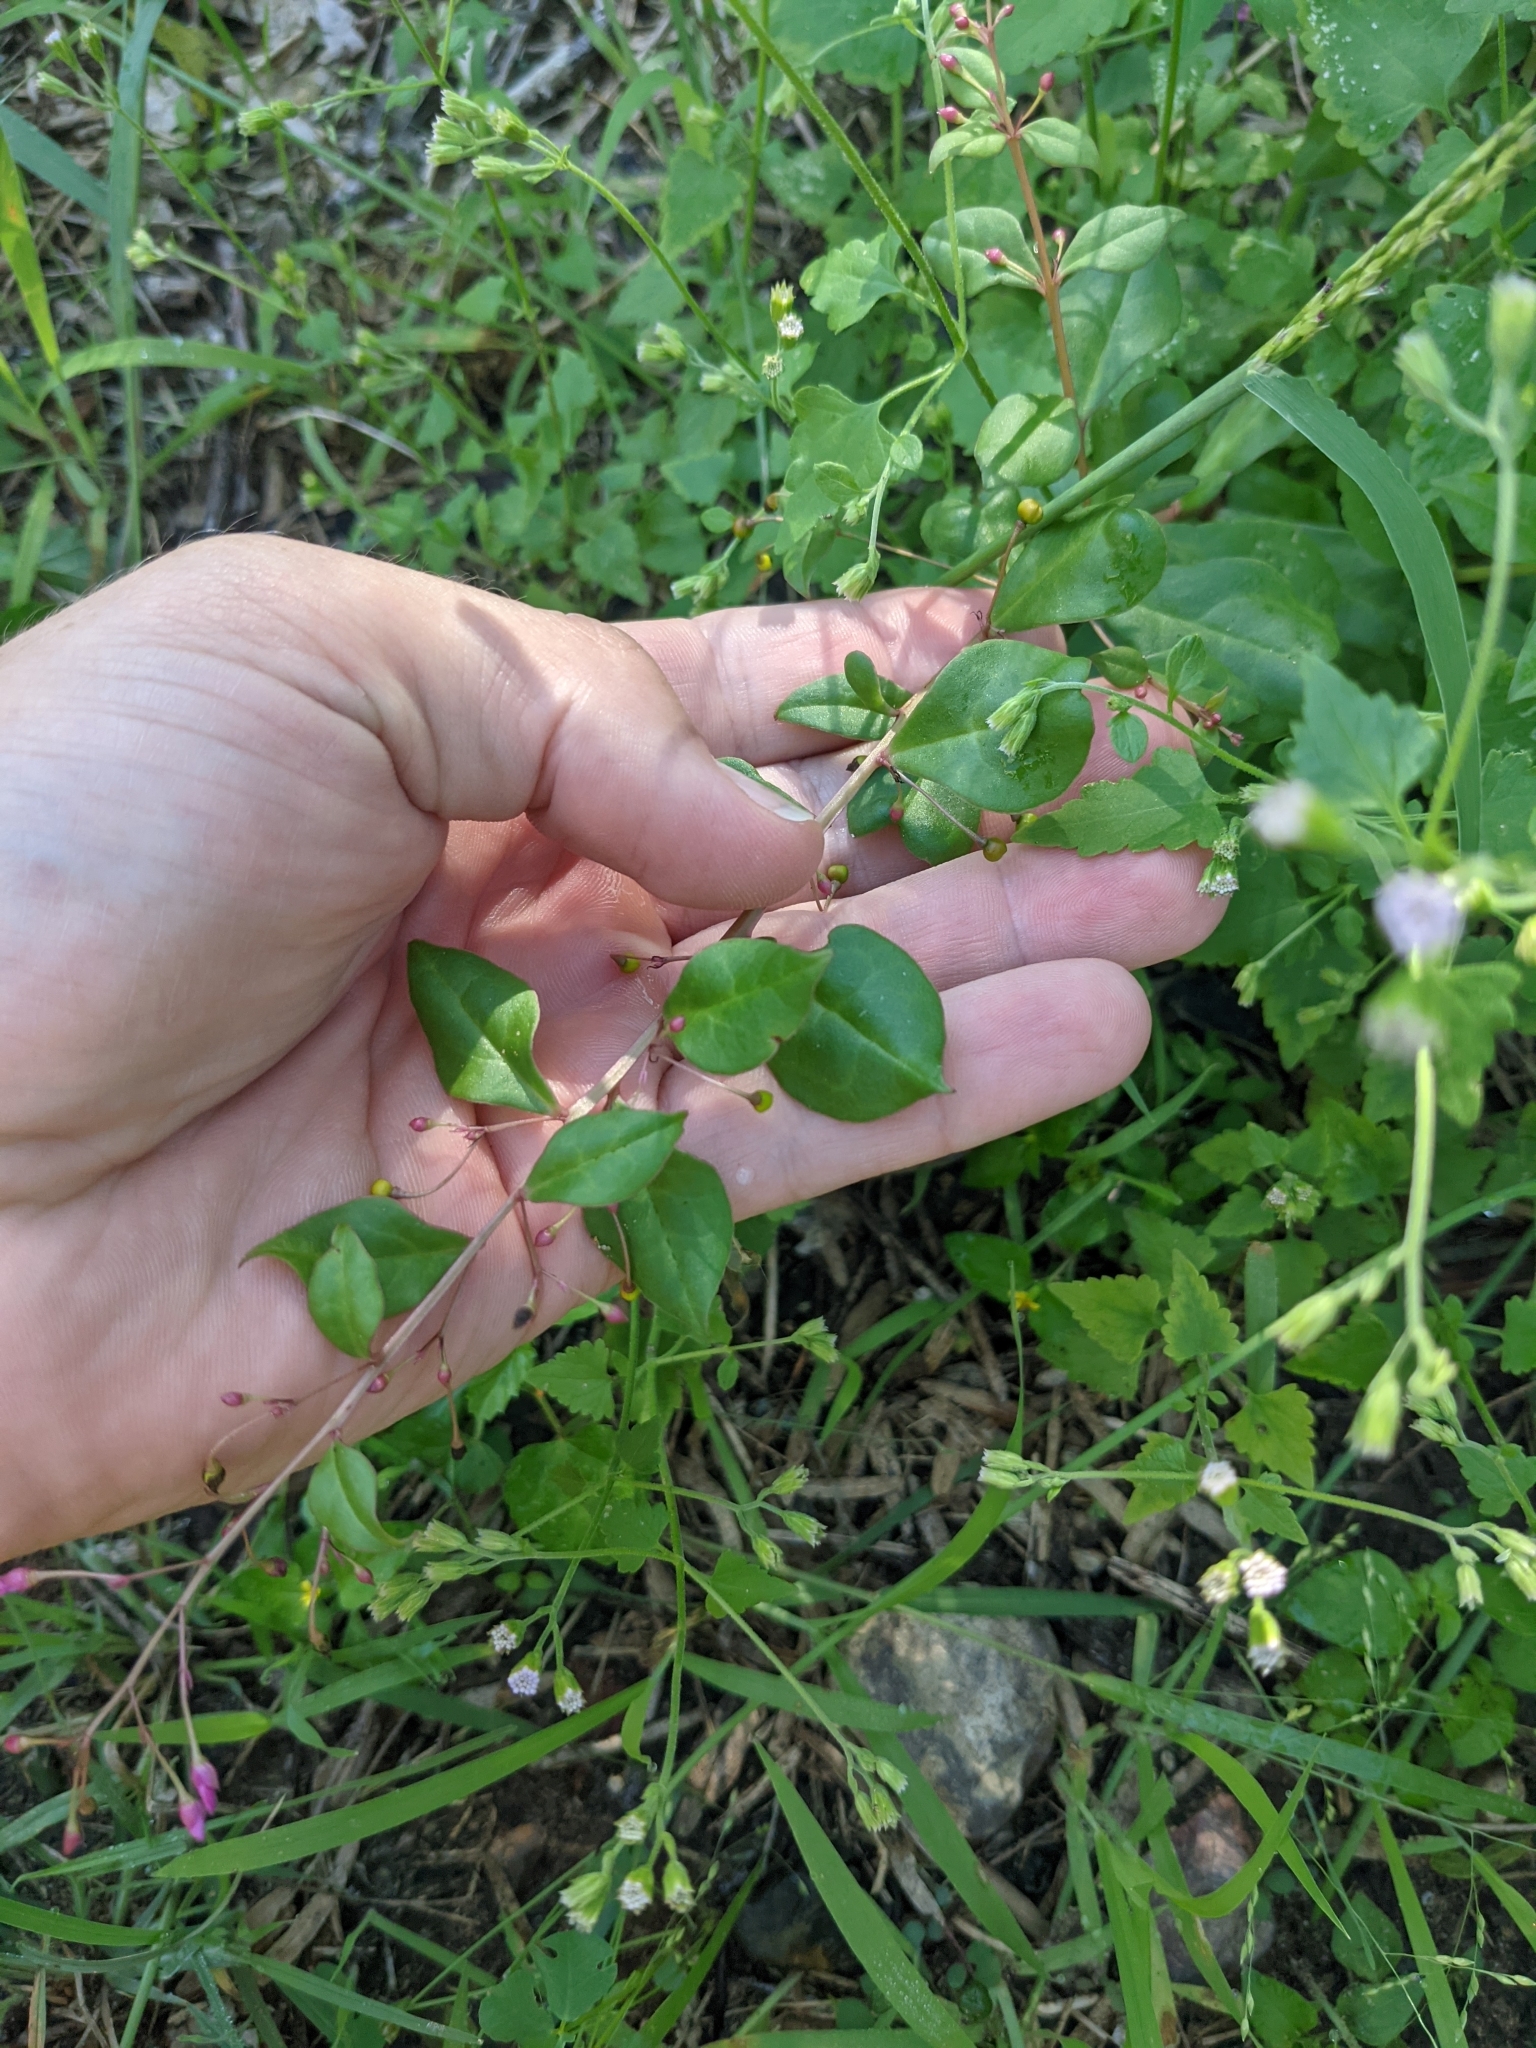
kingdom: Plantae
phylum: Tracheophyta
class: Magnoliopsida
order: Caryophyllales
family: Talinaceae
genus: Talinum
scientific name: Talinum paniculatum
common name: Jewels of opar
